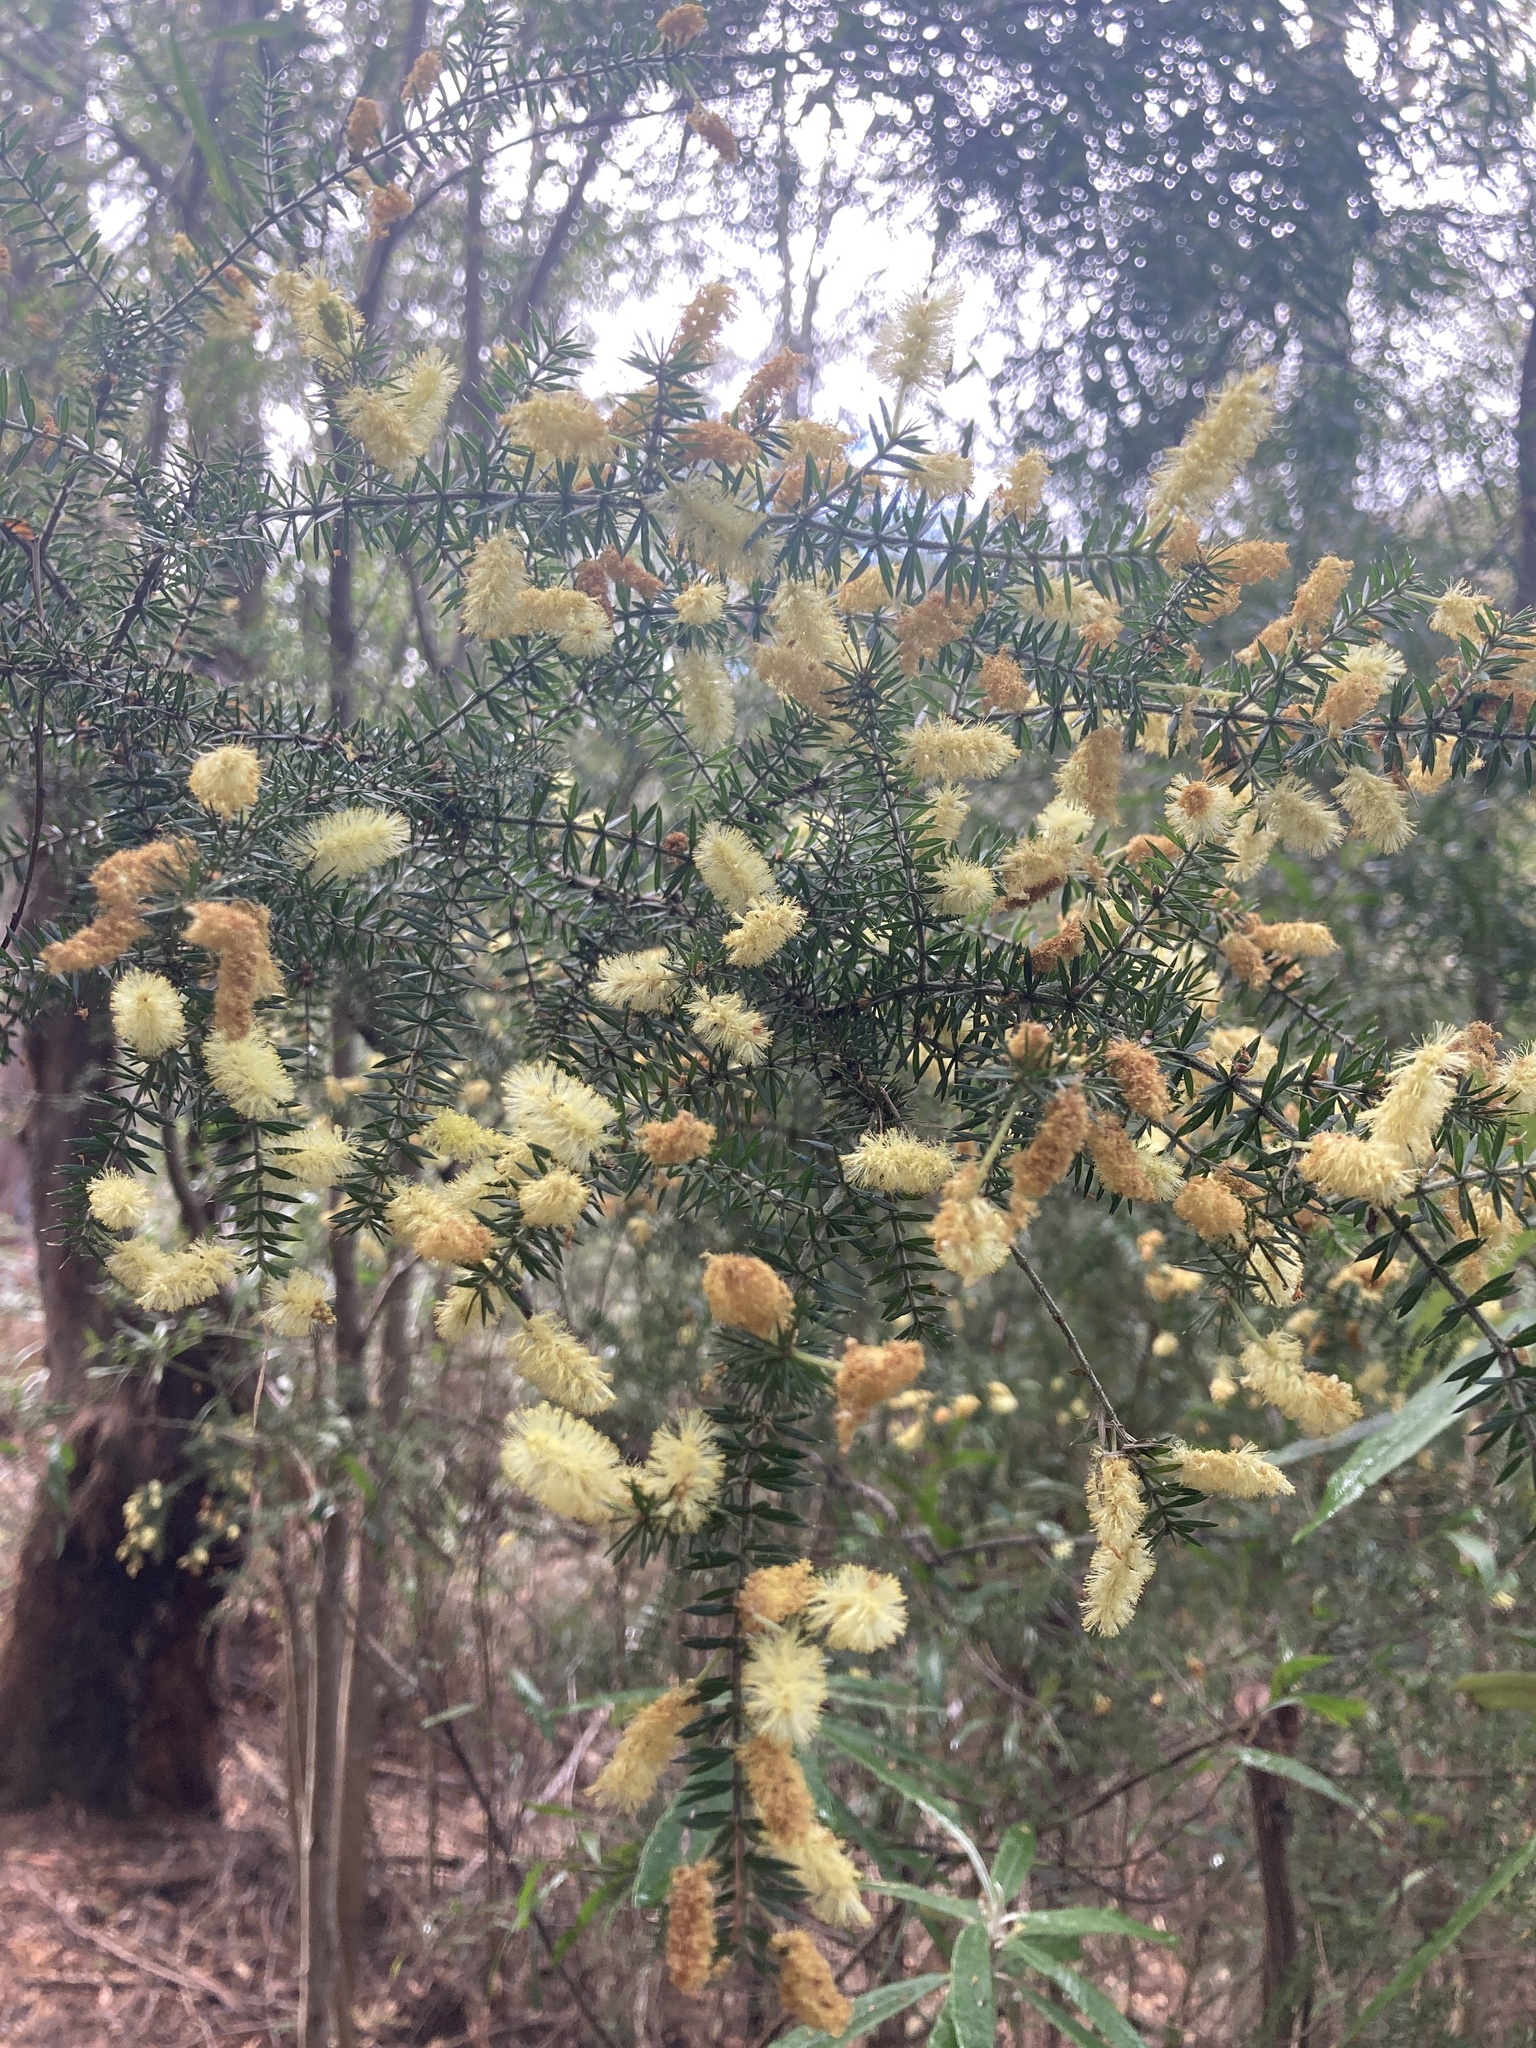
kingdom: Plantae
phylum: Tracheophyta
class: Magnoliopsida
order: Fabales
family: Fabaceae
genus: Acacia
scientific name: Acacia verticillata
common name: Prickly moses
